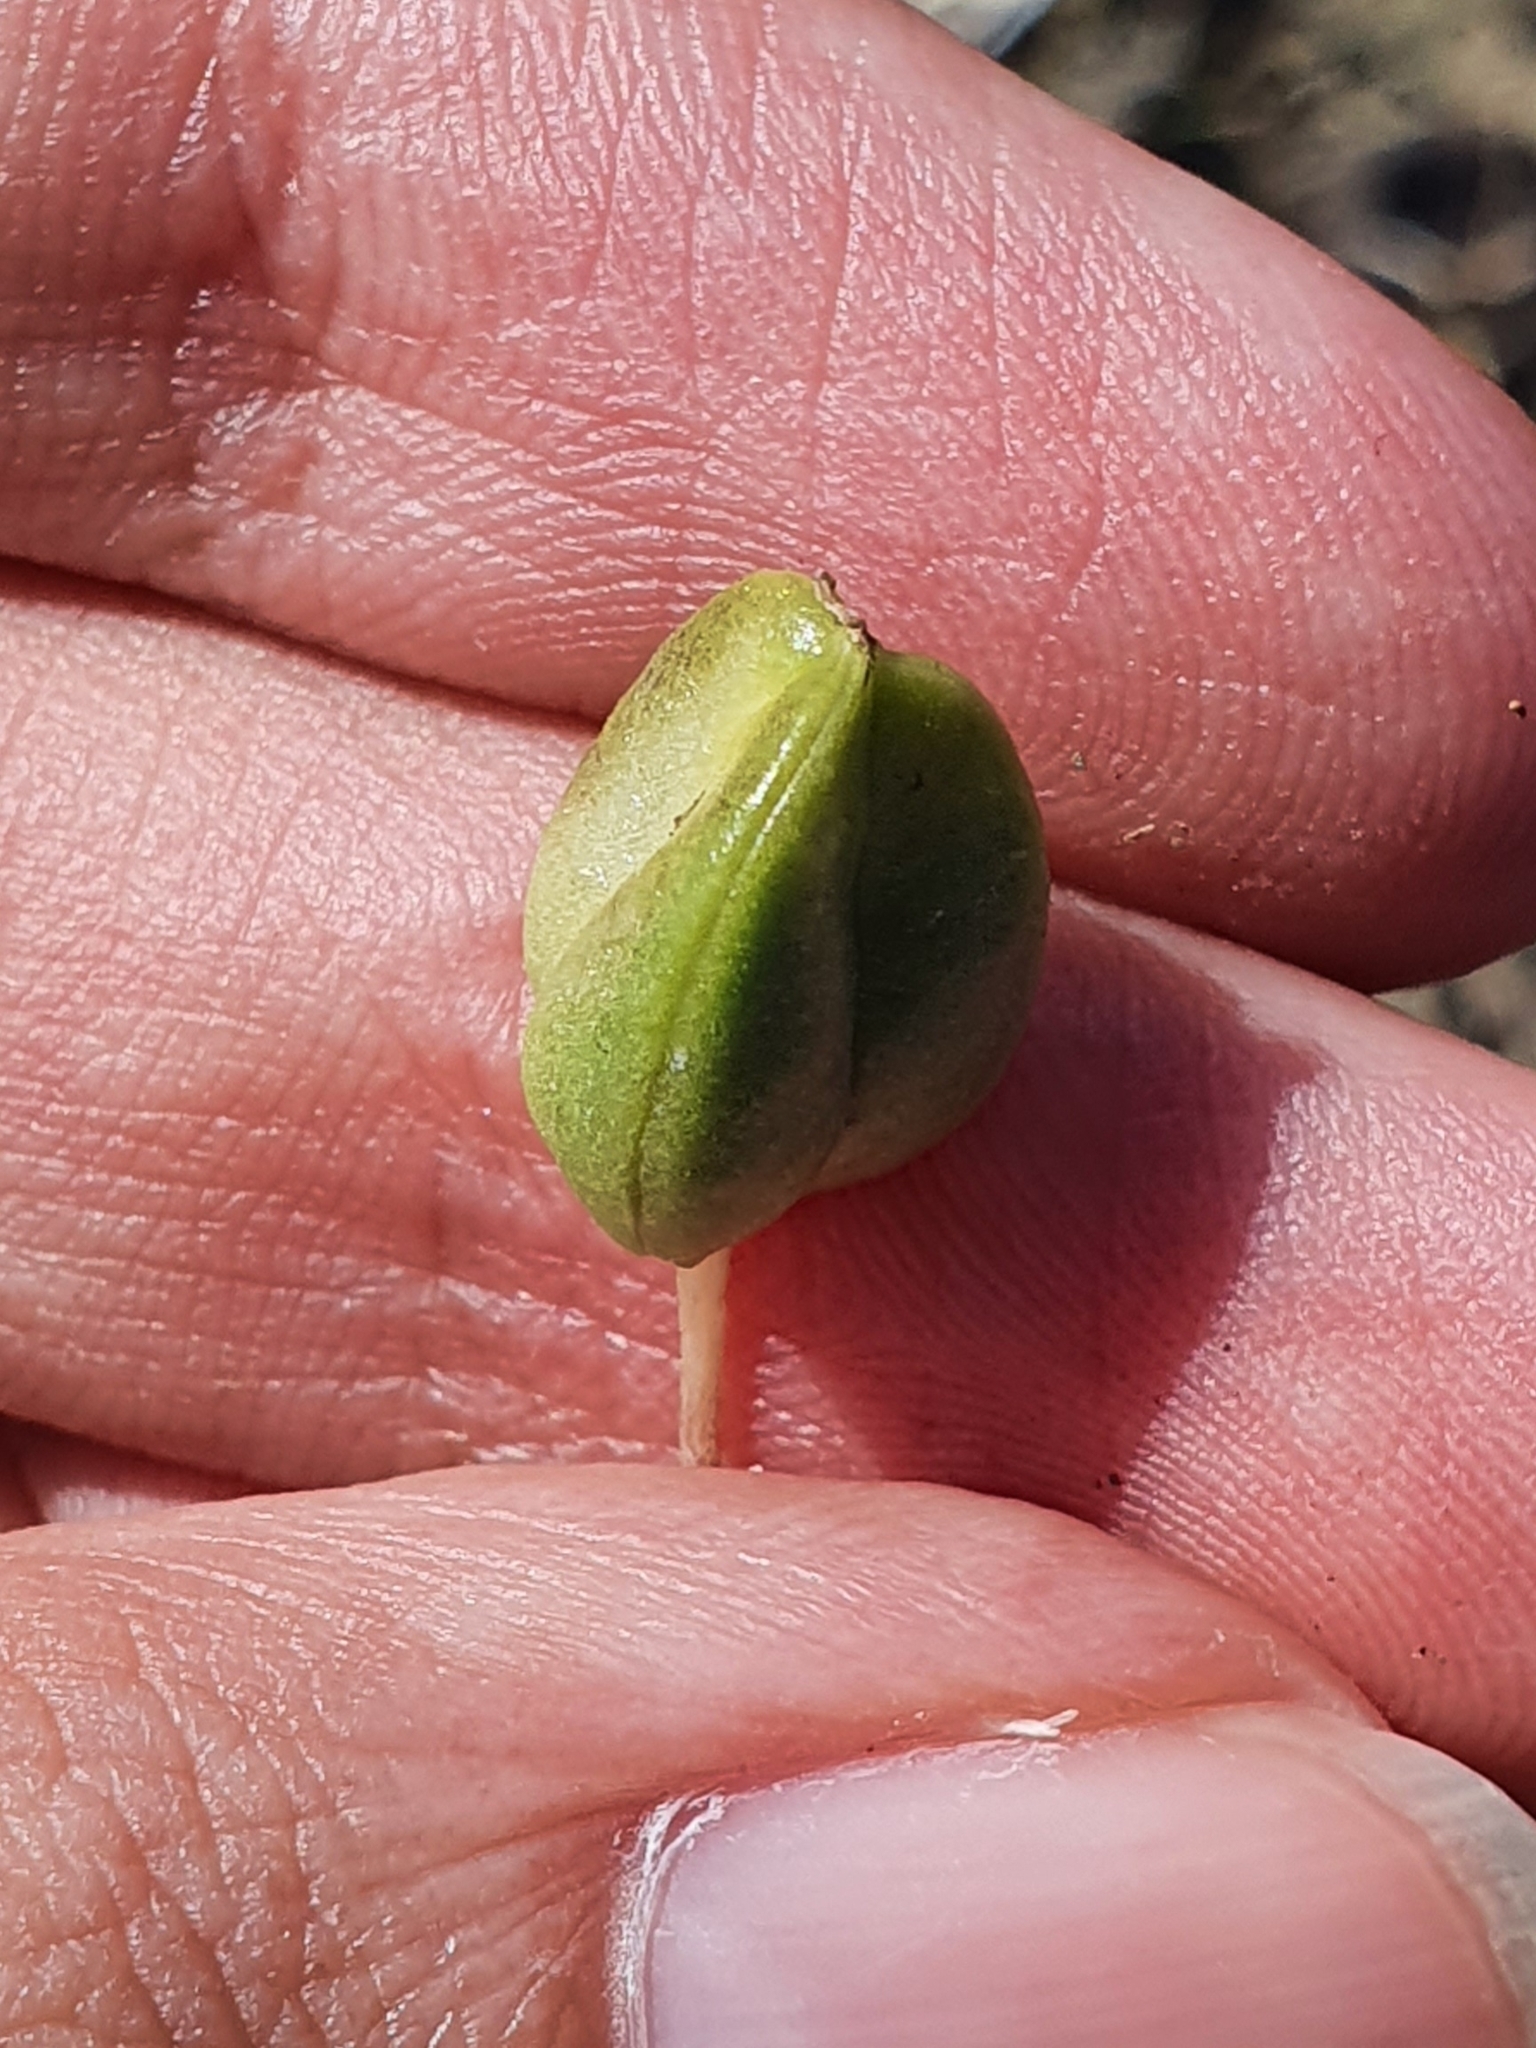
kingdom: Plantae
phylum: Tracheophyta
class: Liliopsida
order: Asparagales
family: Asparagaceae
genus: Drimia
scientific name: Drimia numidica
